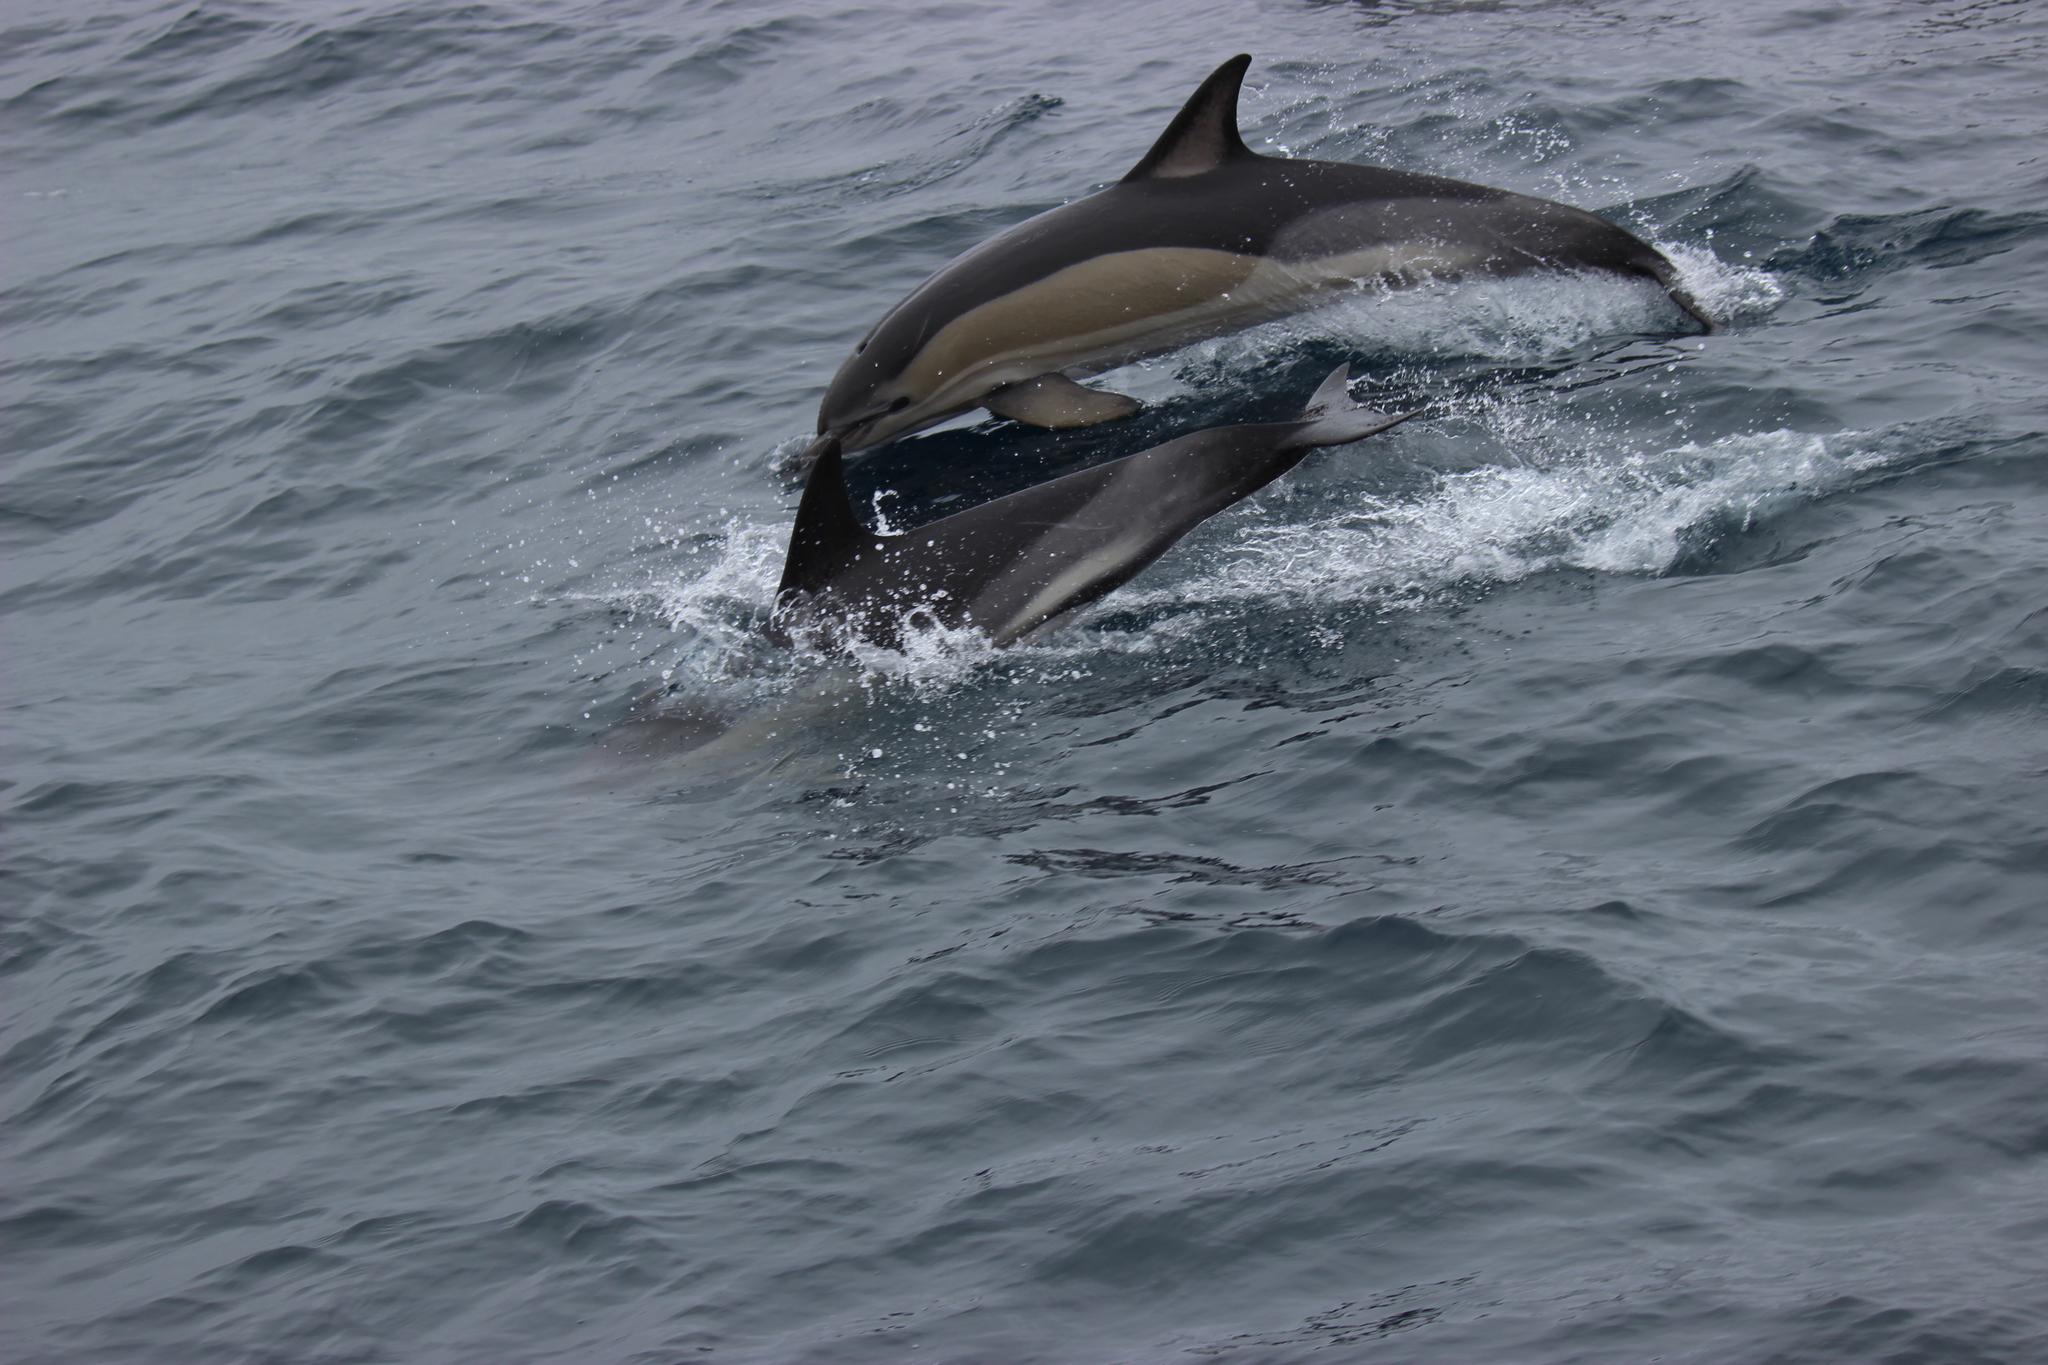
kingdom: Animalia
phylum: Chordata
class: Mammalia
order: Cetacea
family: Delphinidae
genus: Delphinus
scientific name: Delphinus delphis
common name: Common dolphin
